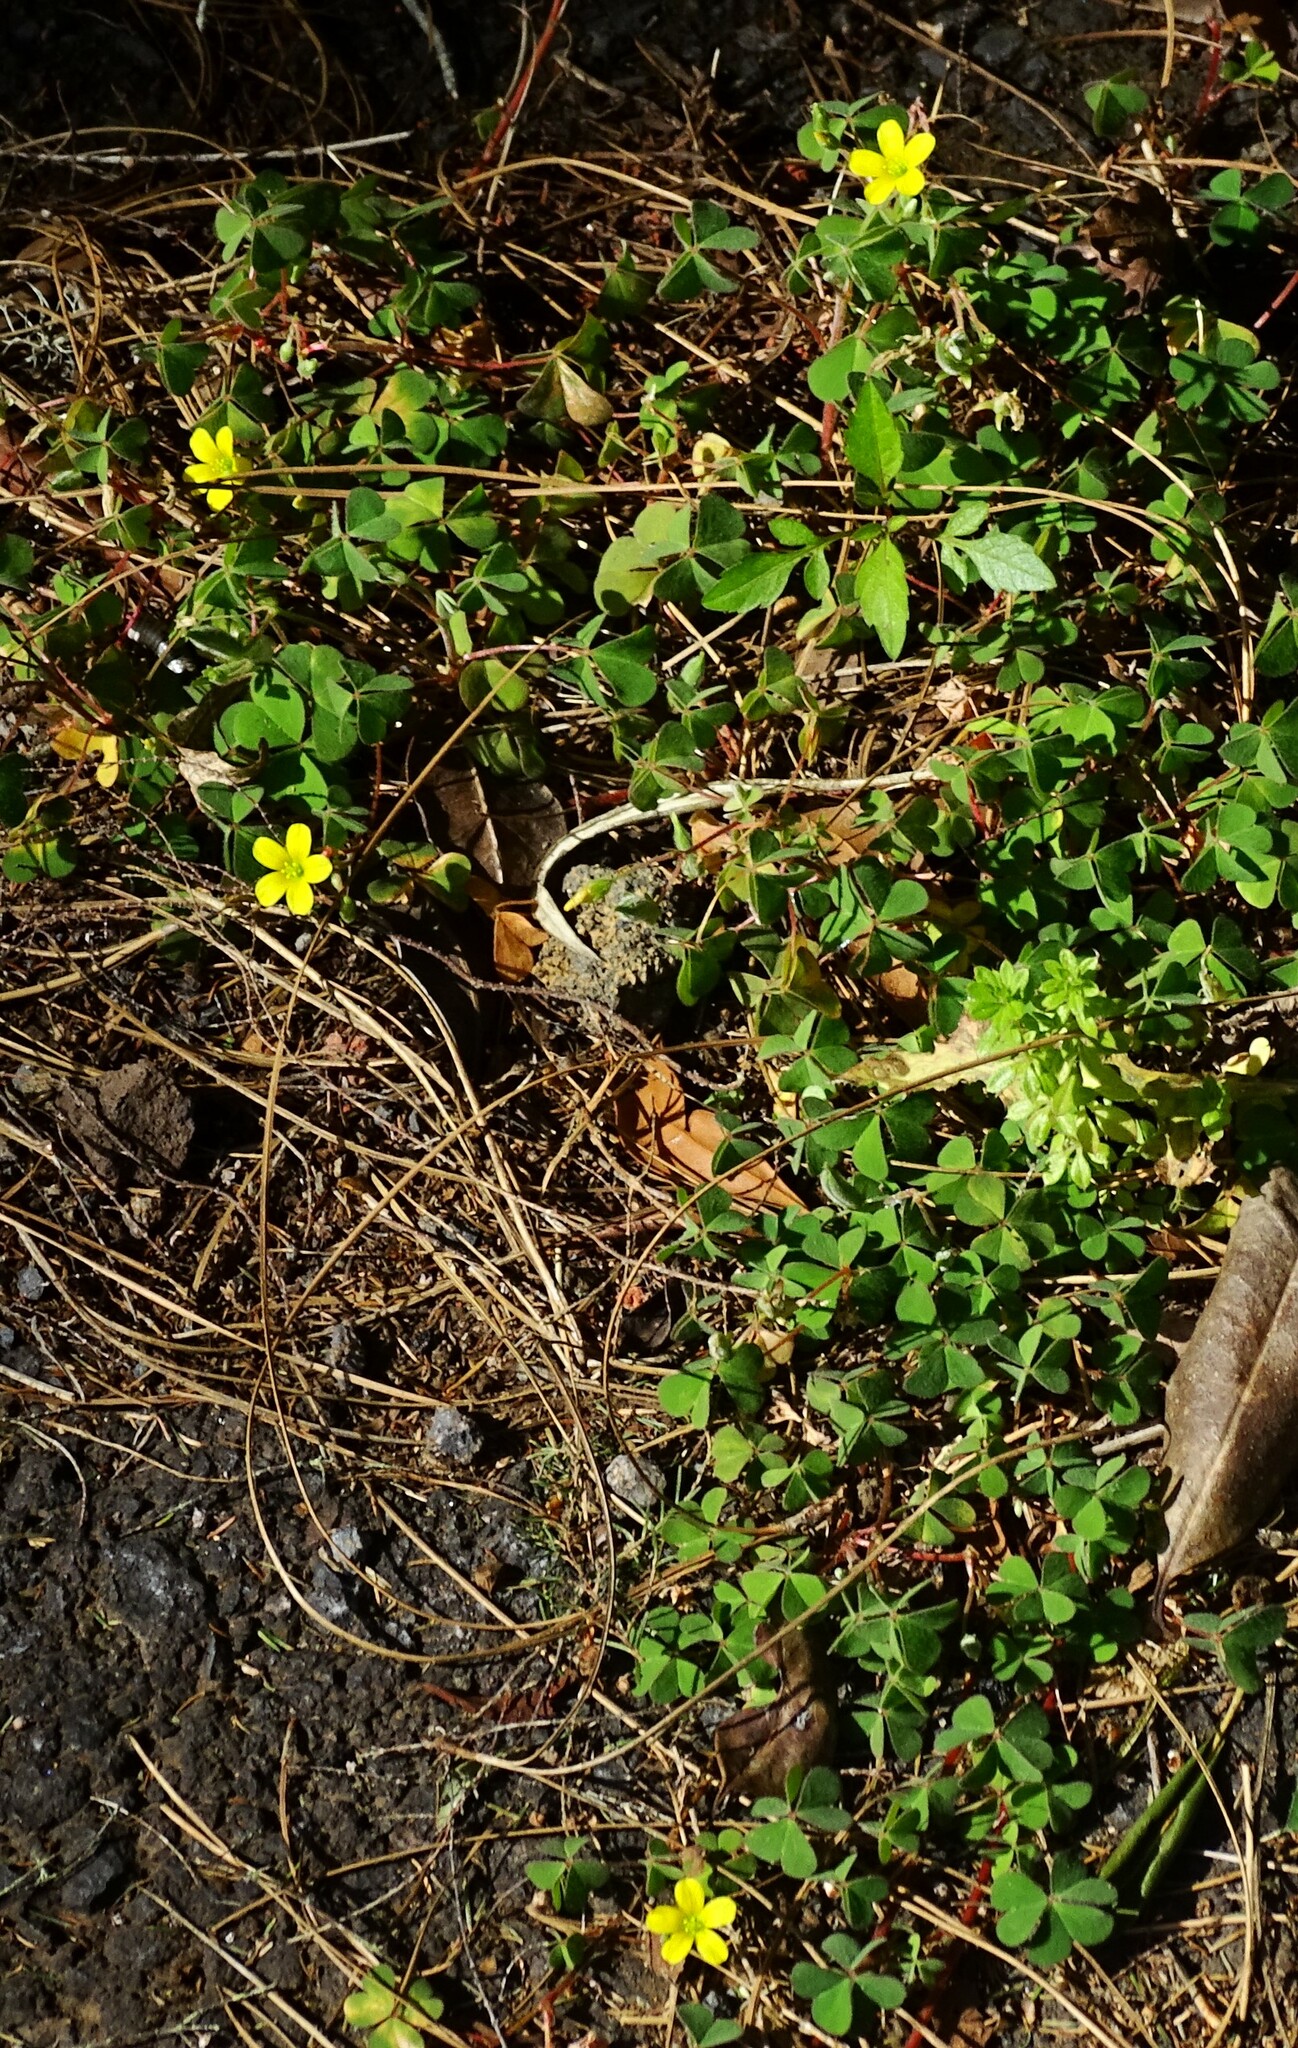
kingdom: Plantae
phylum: Tracheophyta
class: Magnoliopsida
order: Oxalidales
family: Oxalidaceae
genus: Oxalis
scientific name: Oxalis corniculata
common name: Procumbent yellow-sorrel
